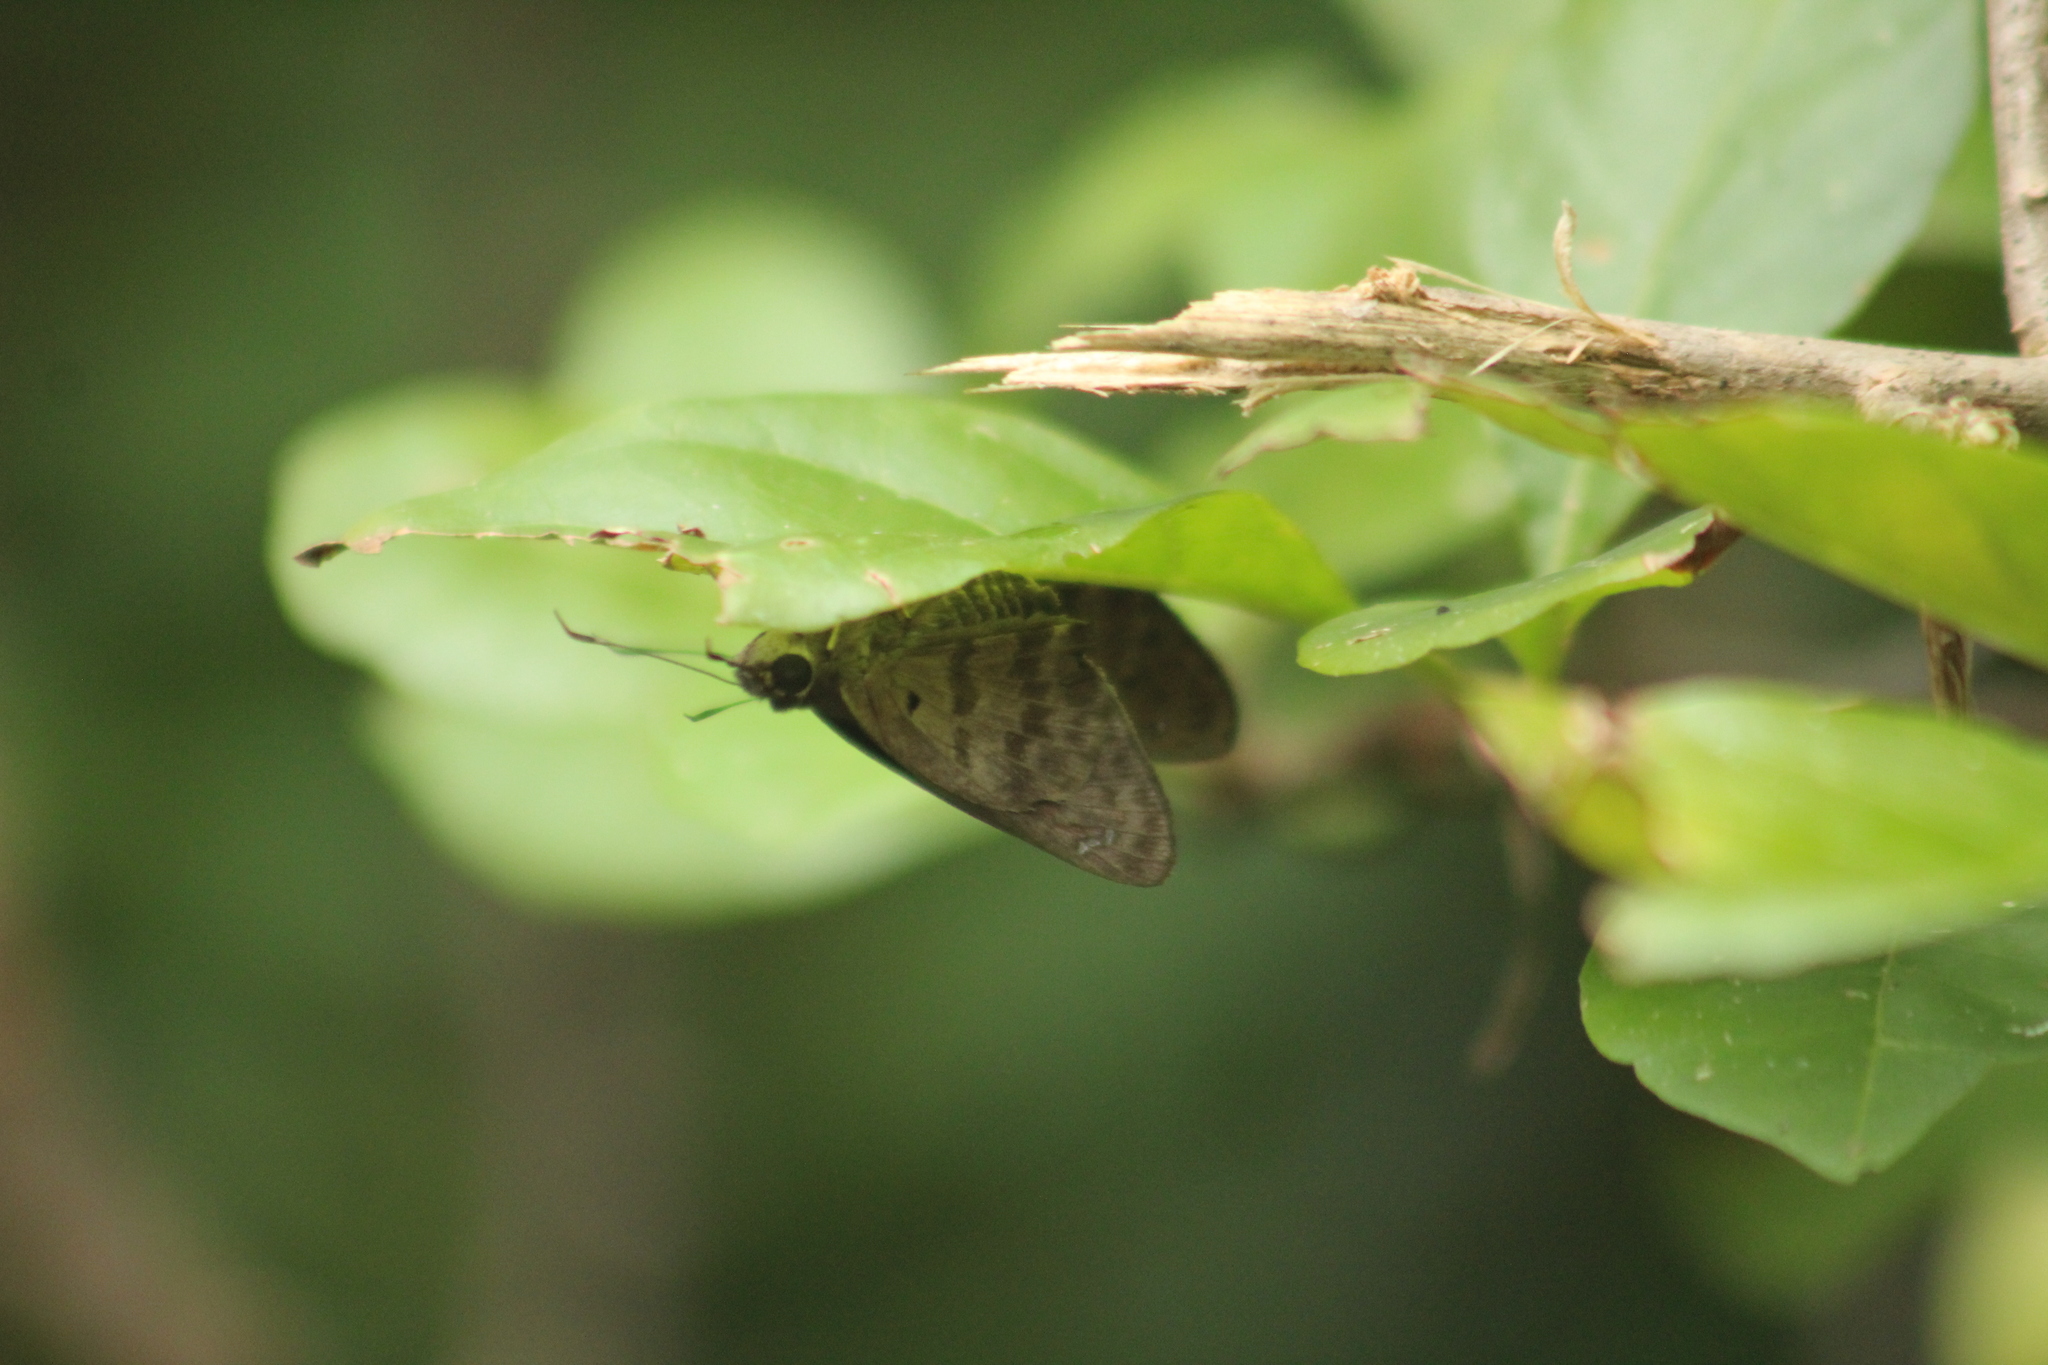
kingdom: Animalia
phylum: Arthropoda
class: Insecta
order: Lepidoptera
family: Hesperiidae
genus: Polygonus
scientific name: Polygonus leo
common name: Hammoch skipper
